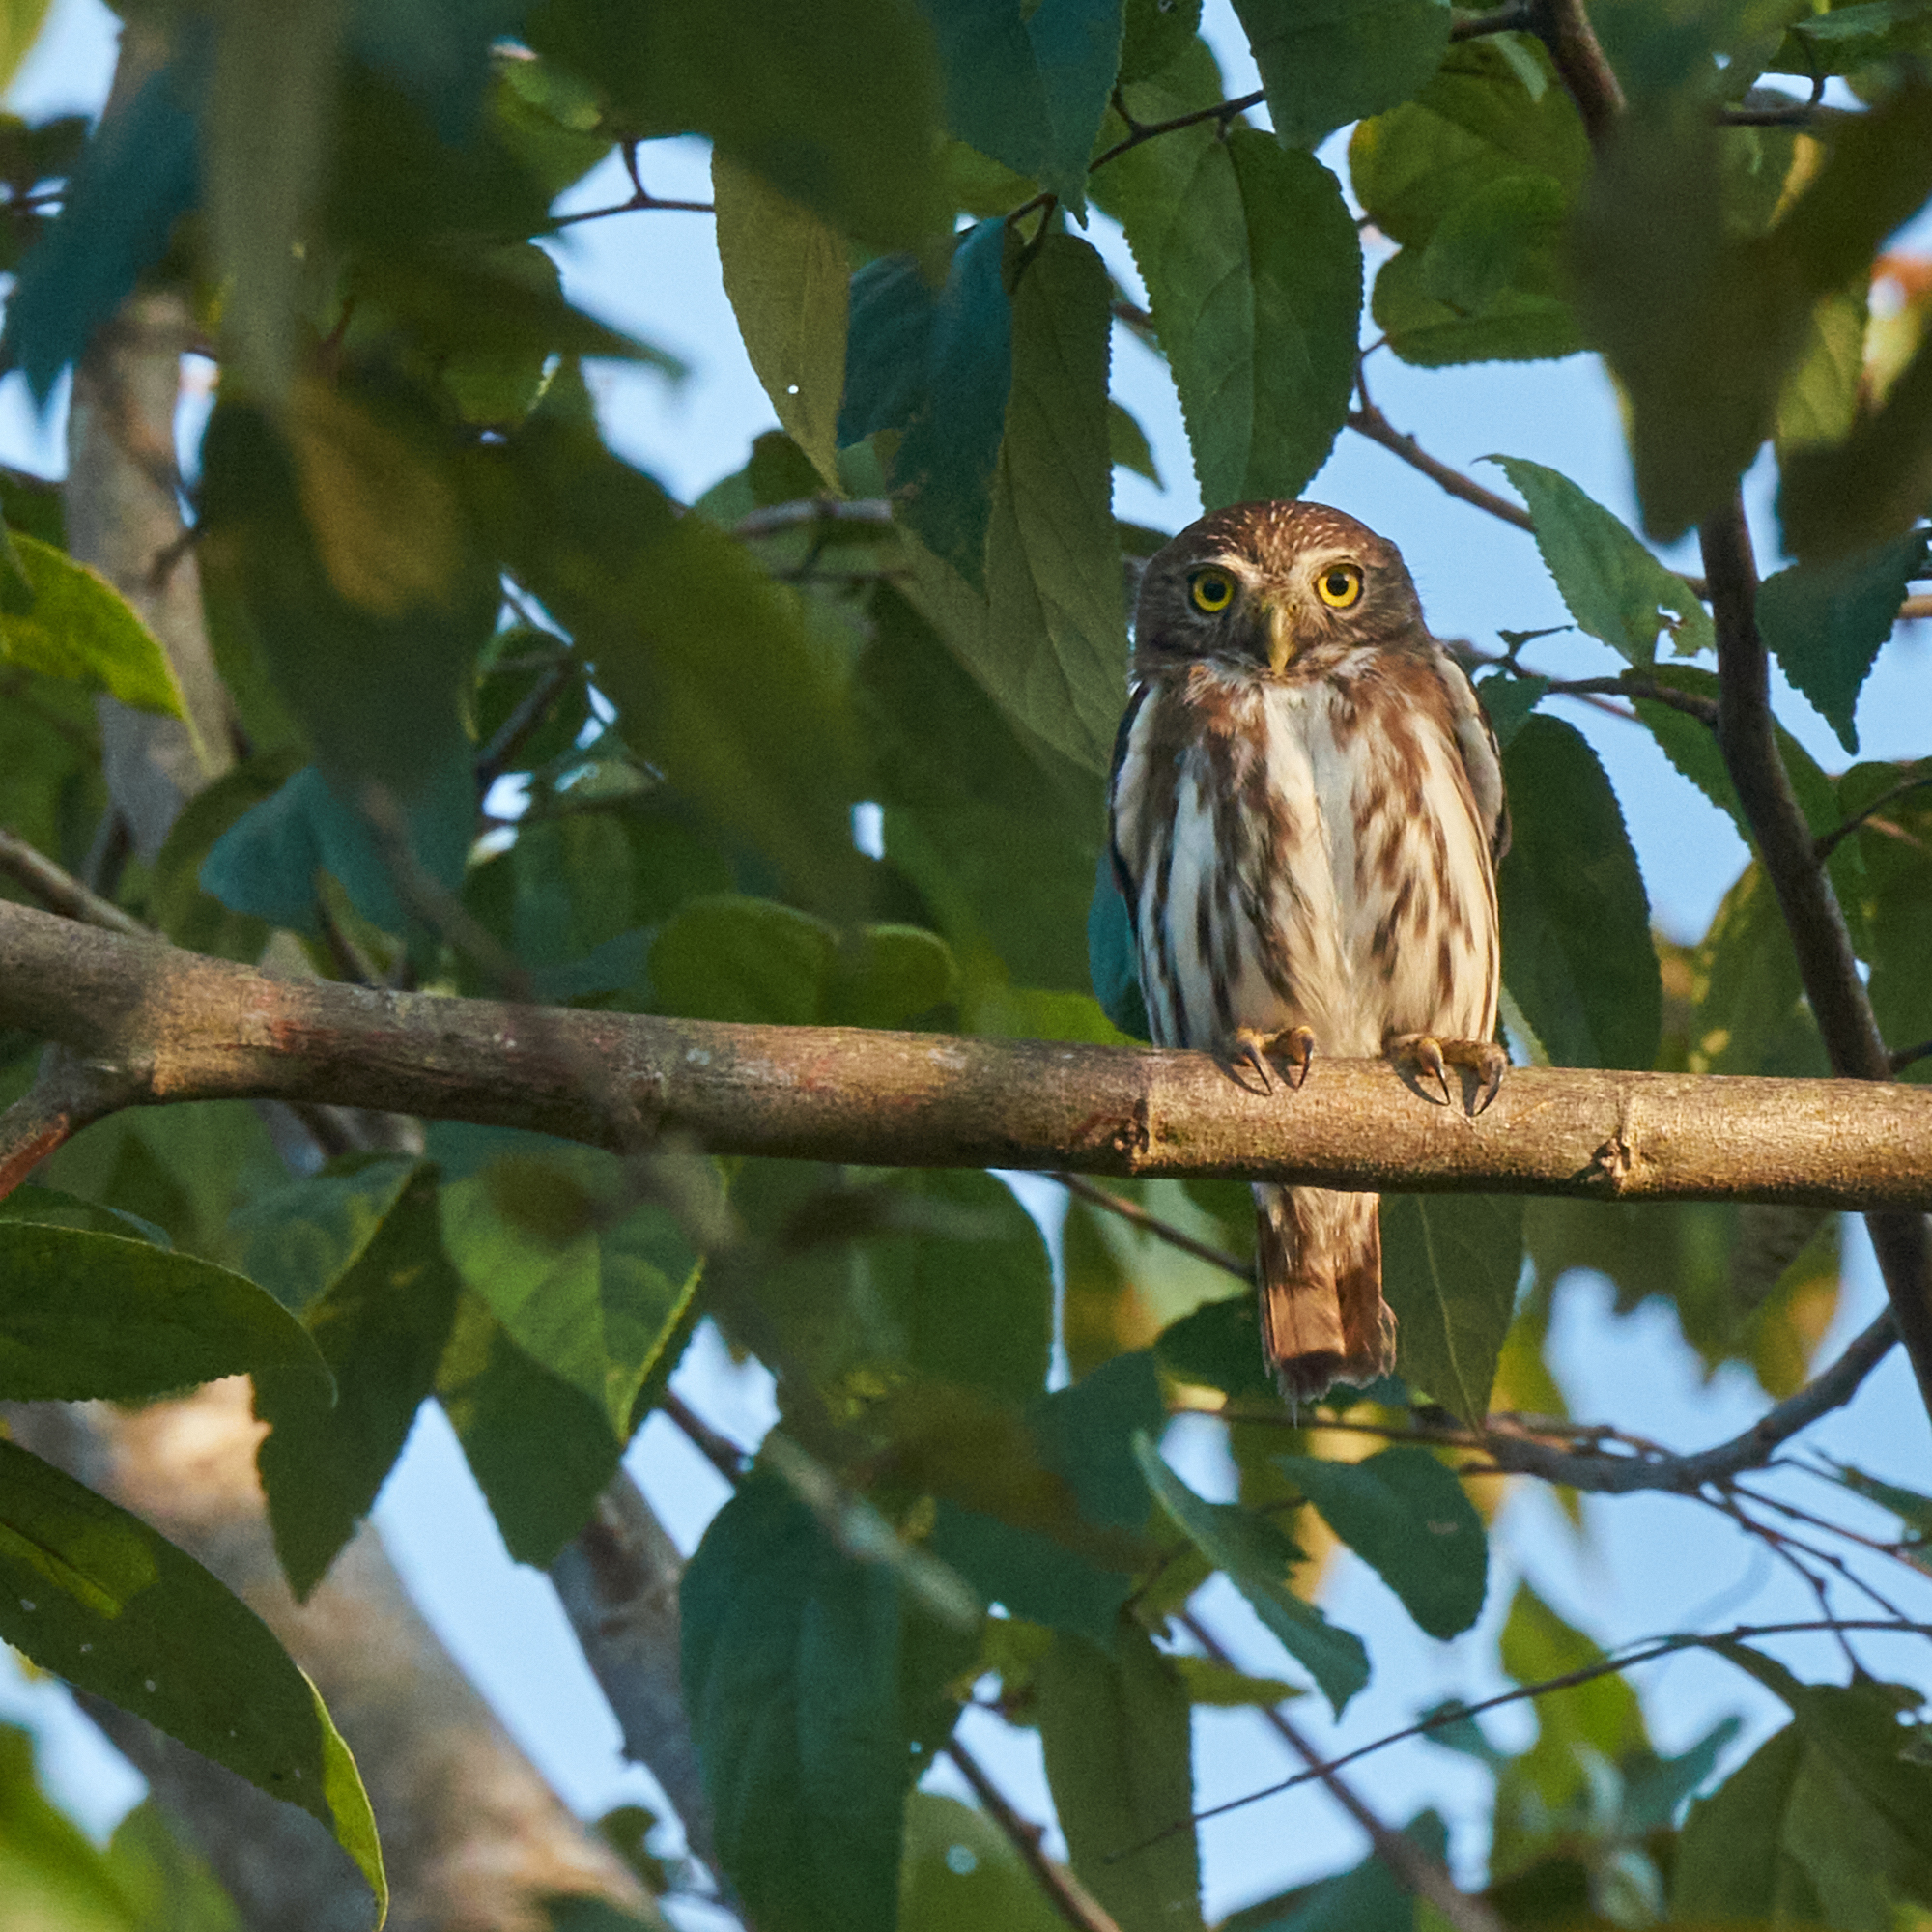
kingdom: Animalia
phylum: Chordata
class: Aves
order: Strigiformes
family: Strigidae
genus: Glaucidium
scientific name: Glaucidium brasilianum
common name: Ferruginous pygmy-owl
